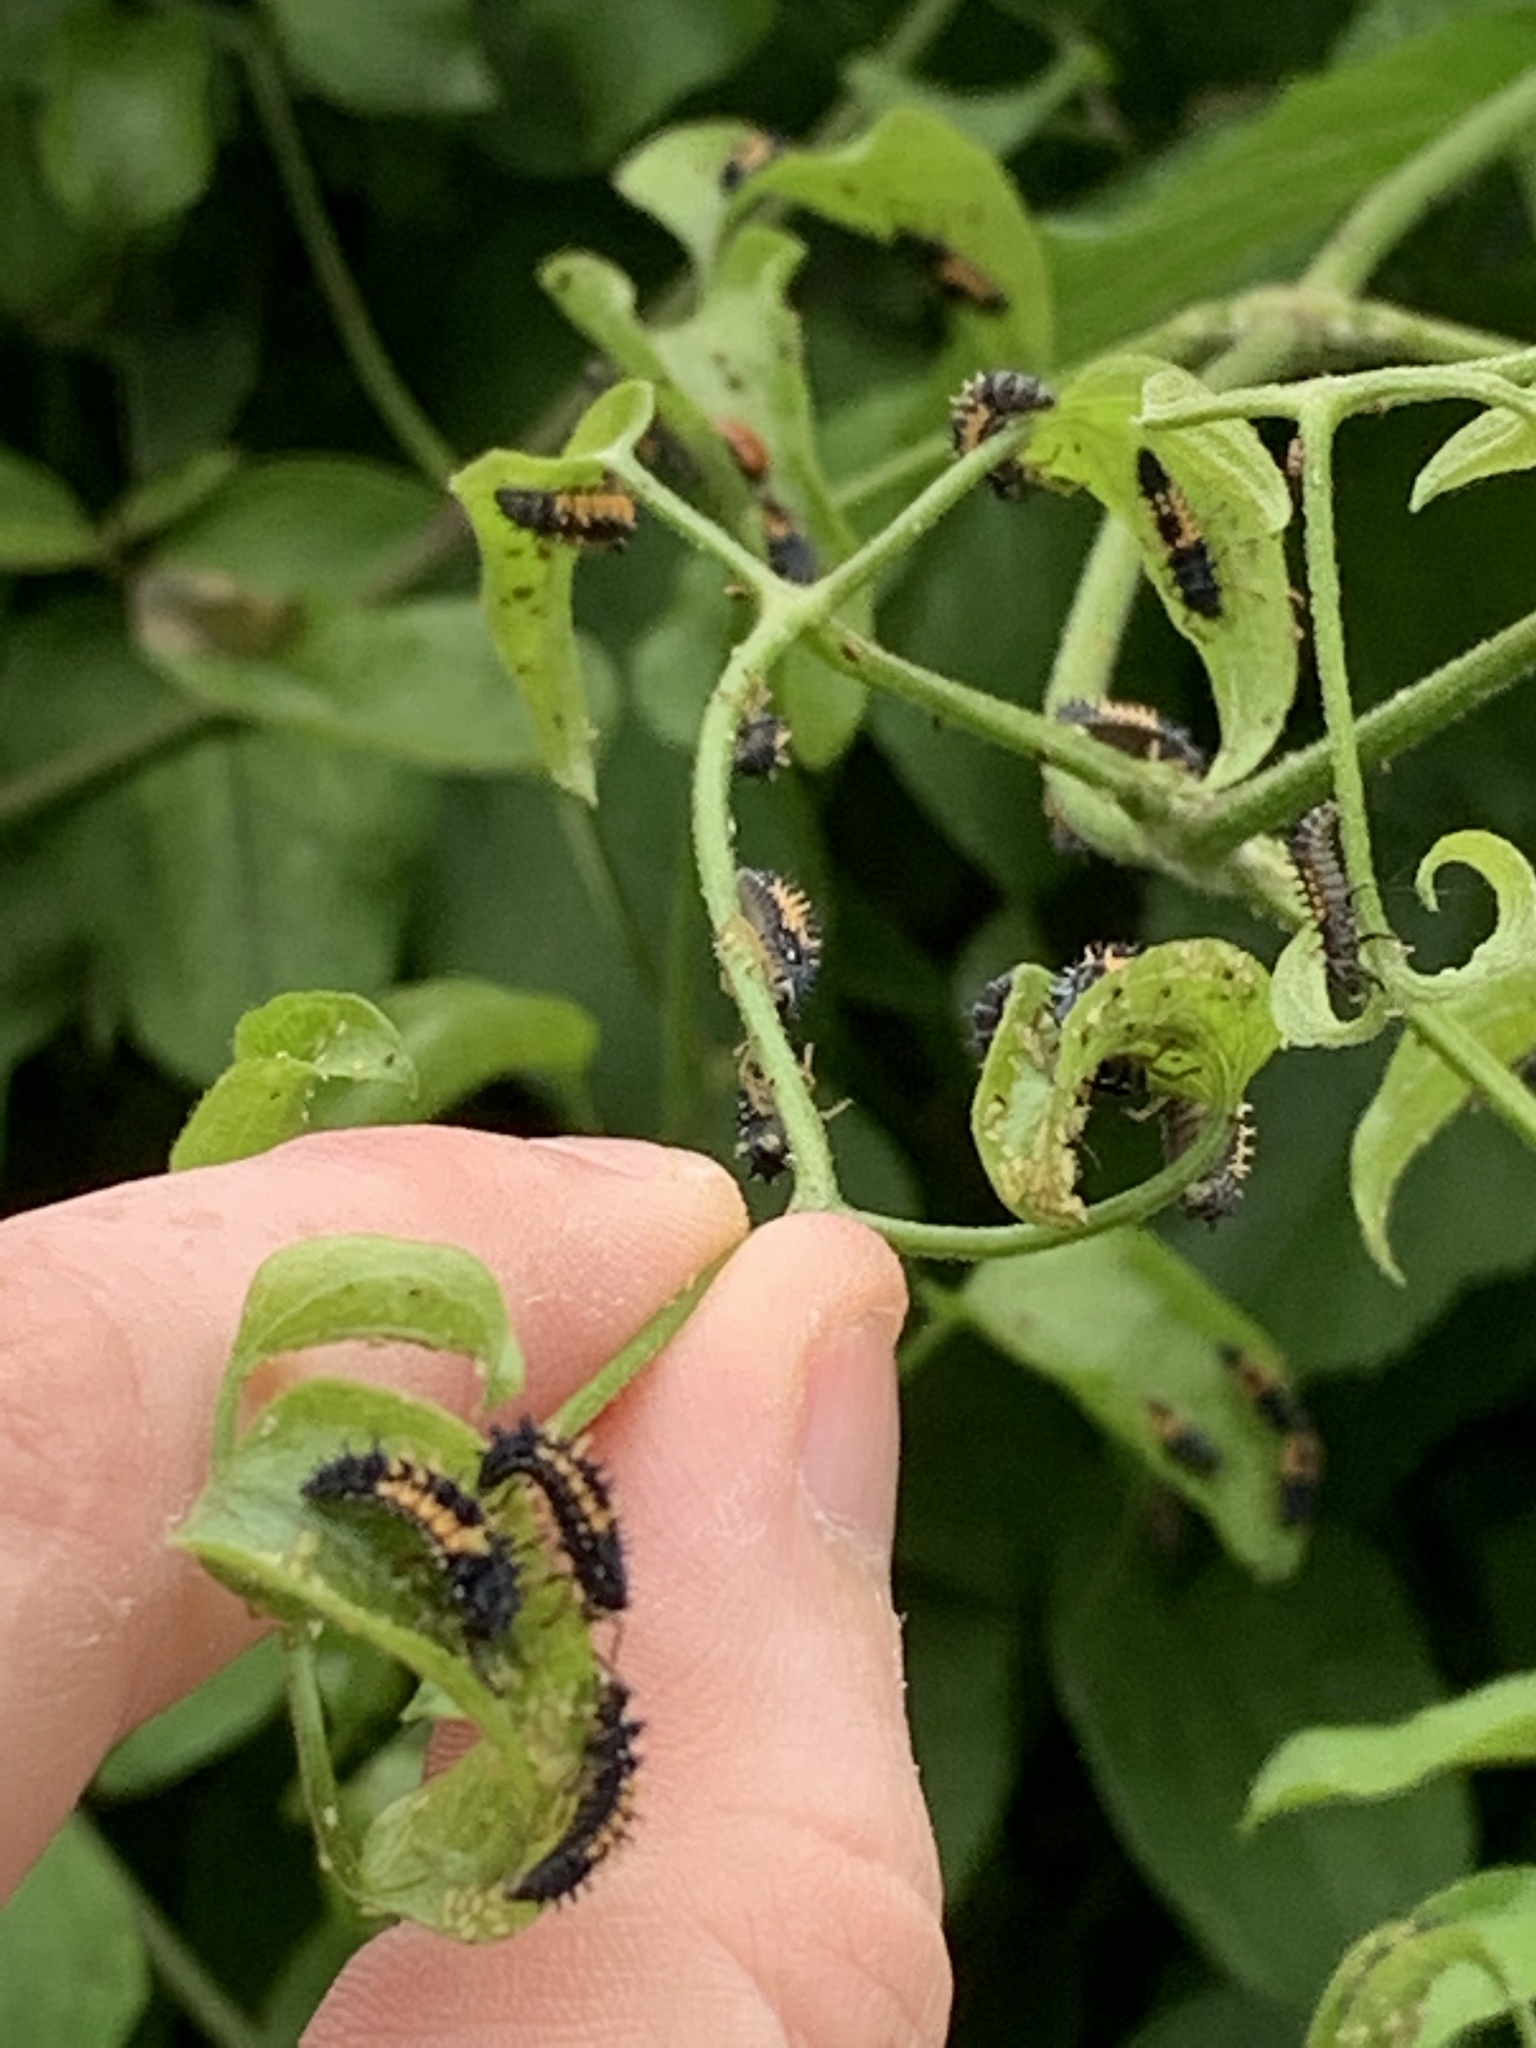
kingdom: Animalia
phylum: Arthropoda
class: Insecta
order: Coleoptera
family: Coccinellidae
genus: Harmonia
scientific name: Harmonia axyridis
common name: Harlequin ladybird
